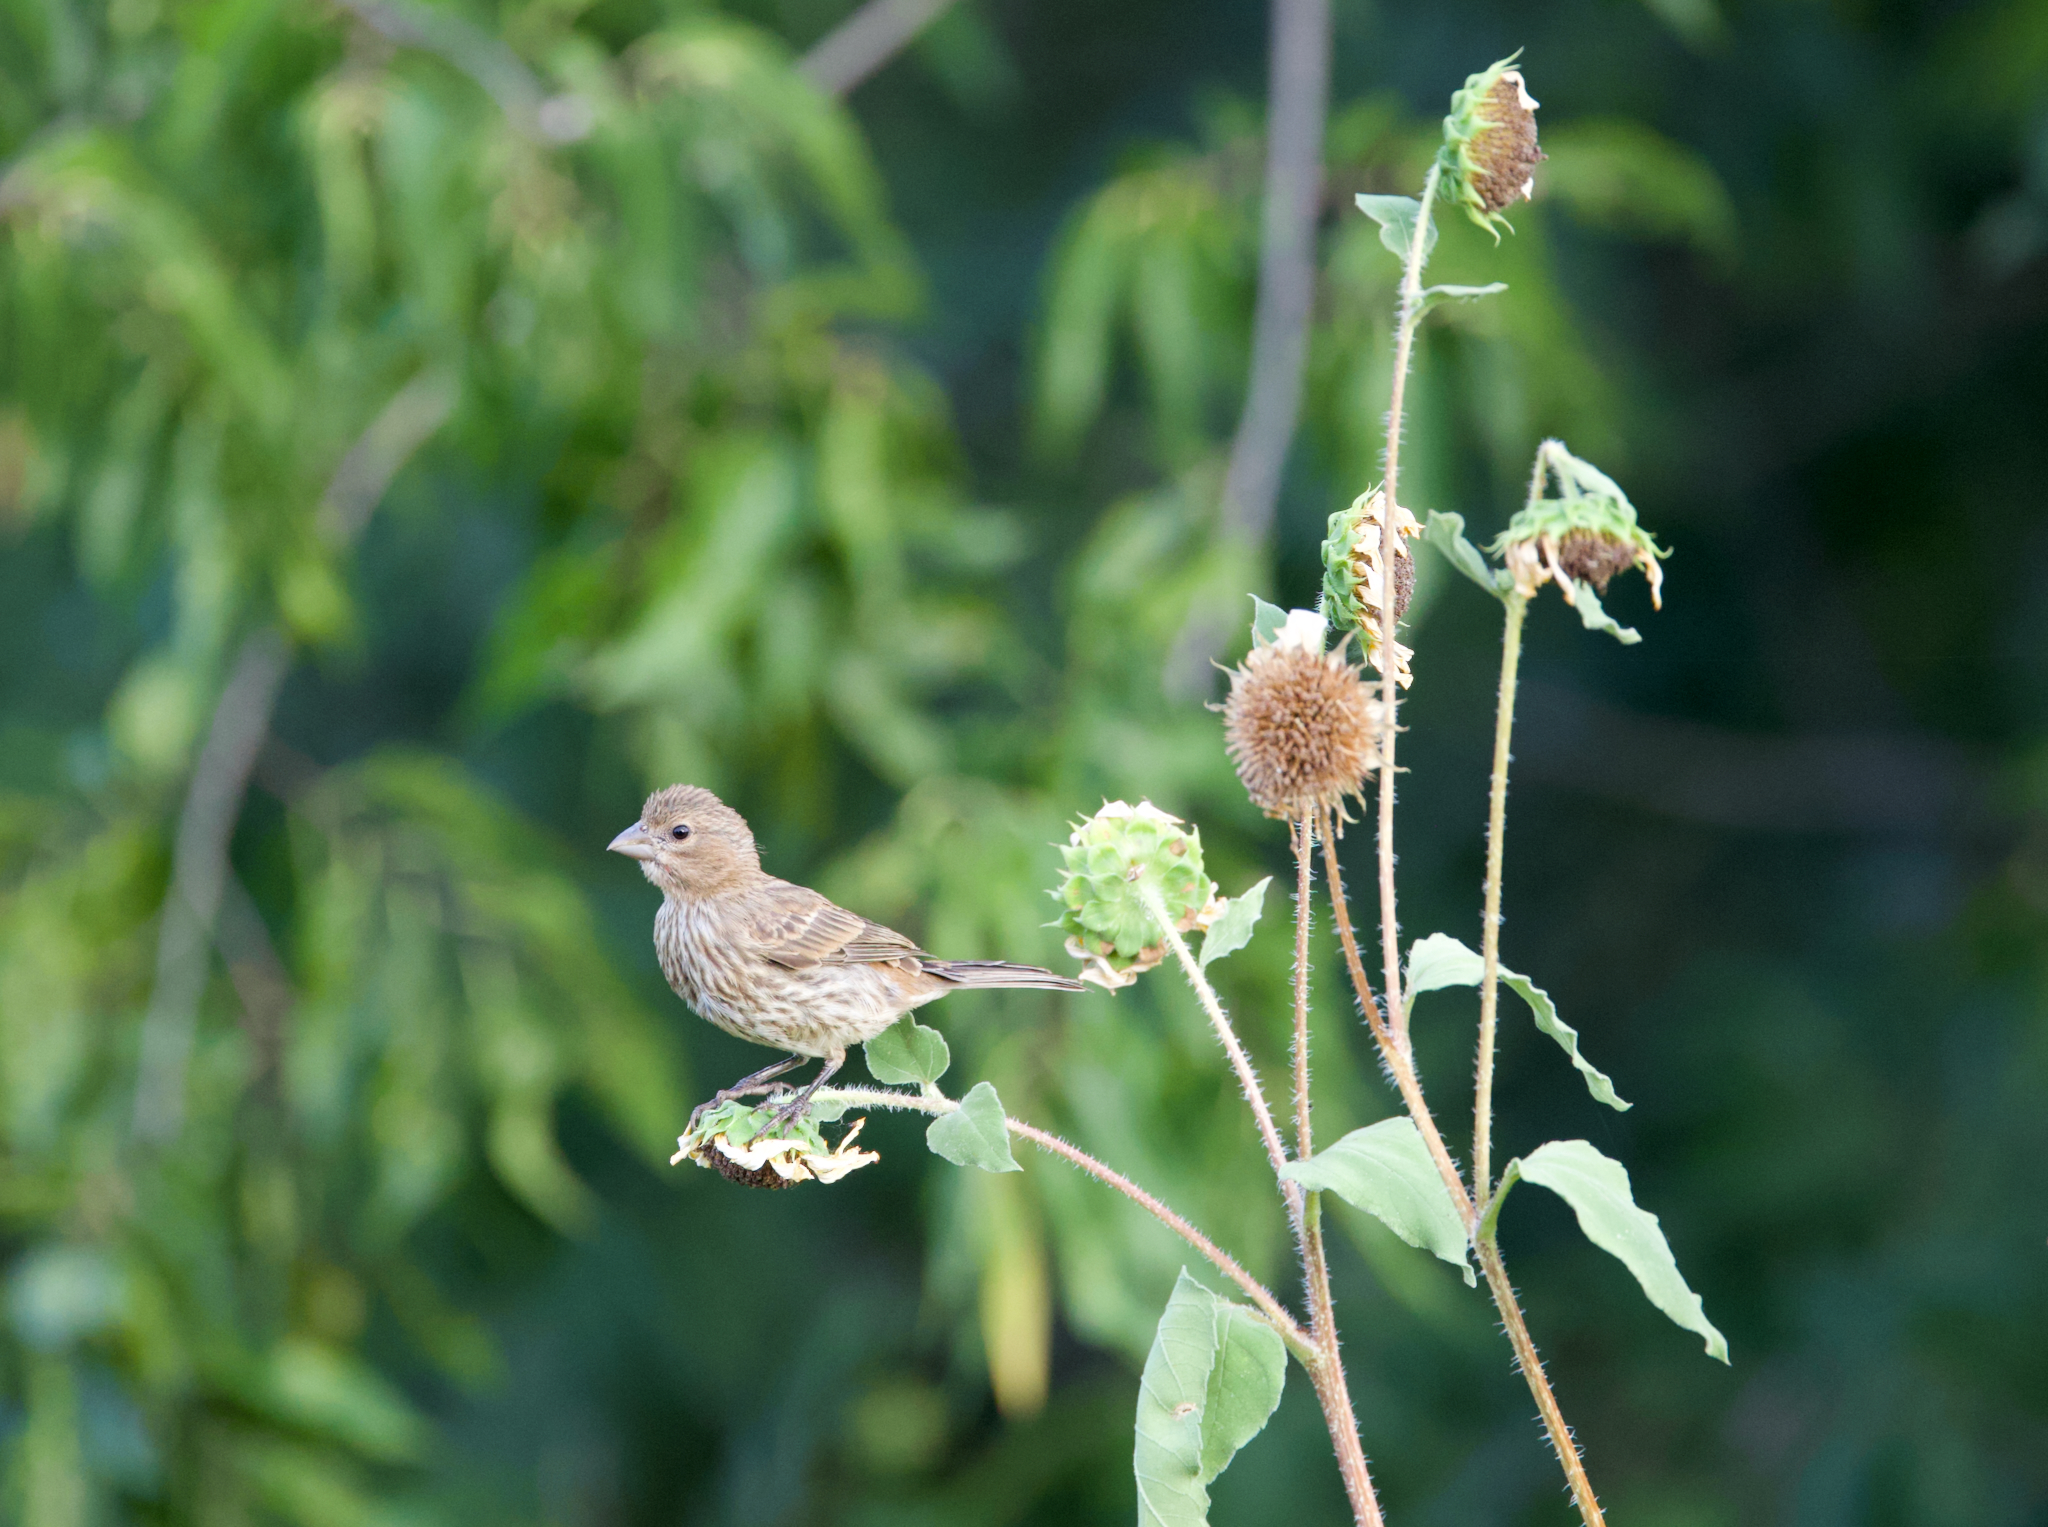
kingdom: Animalia
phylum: Chordata
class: Aves
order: Passeriformes
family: Fringillidae
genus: Haemorhous
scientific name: Haemorhous mexicanus
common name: House finch
